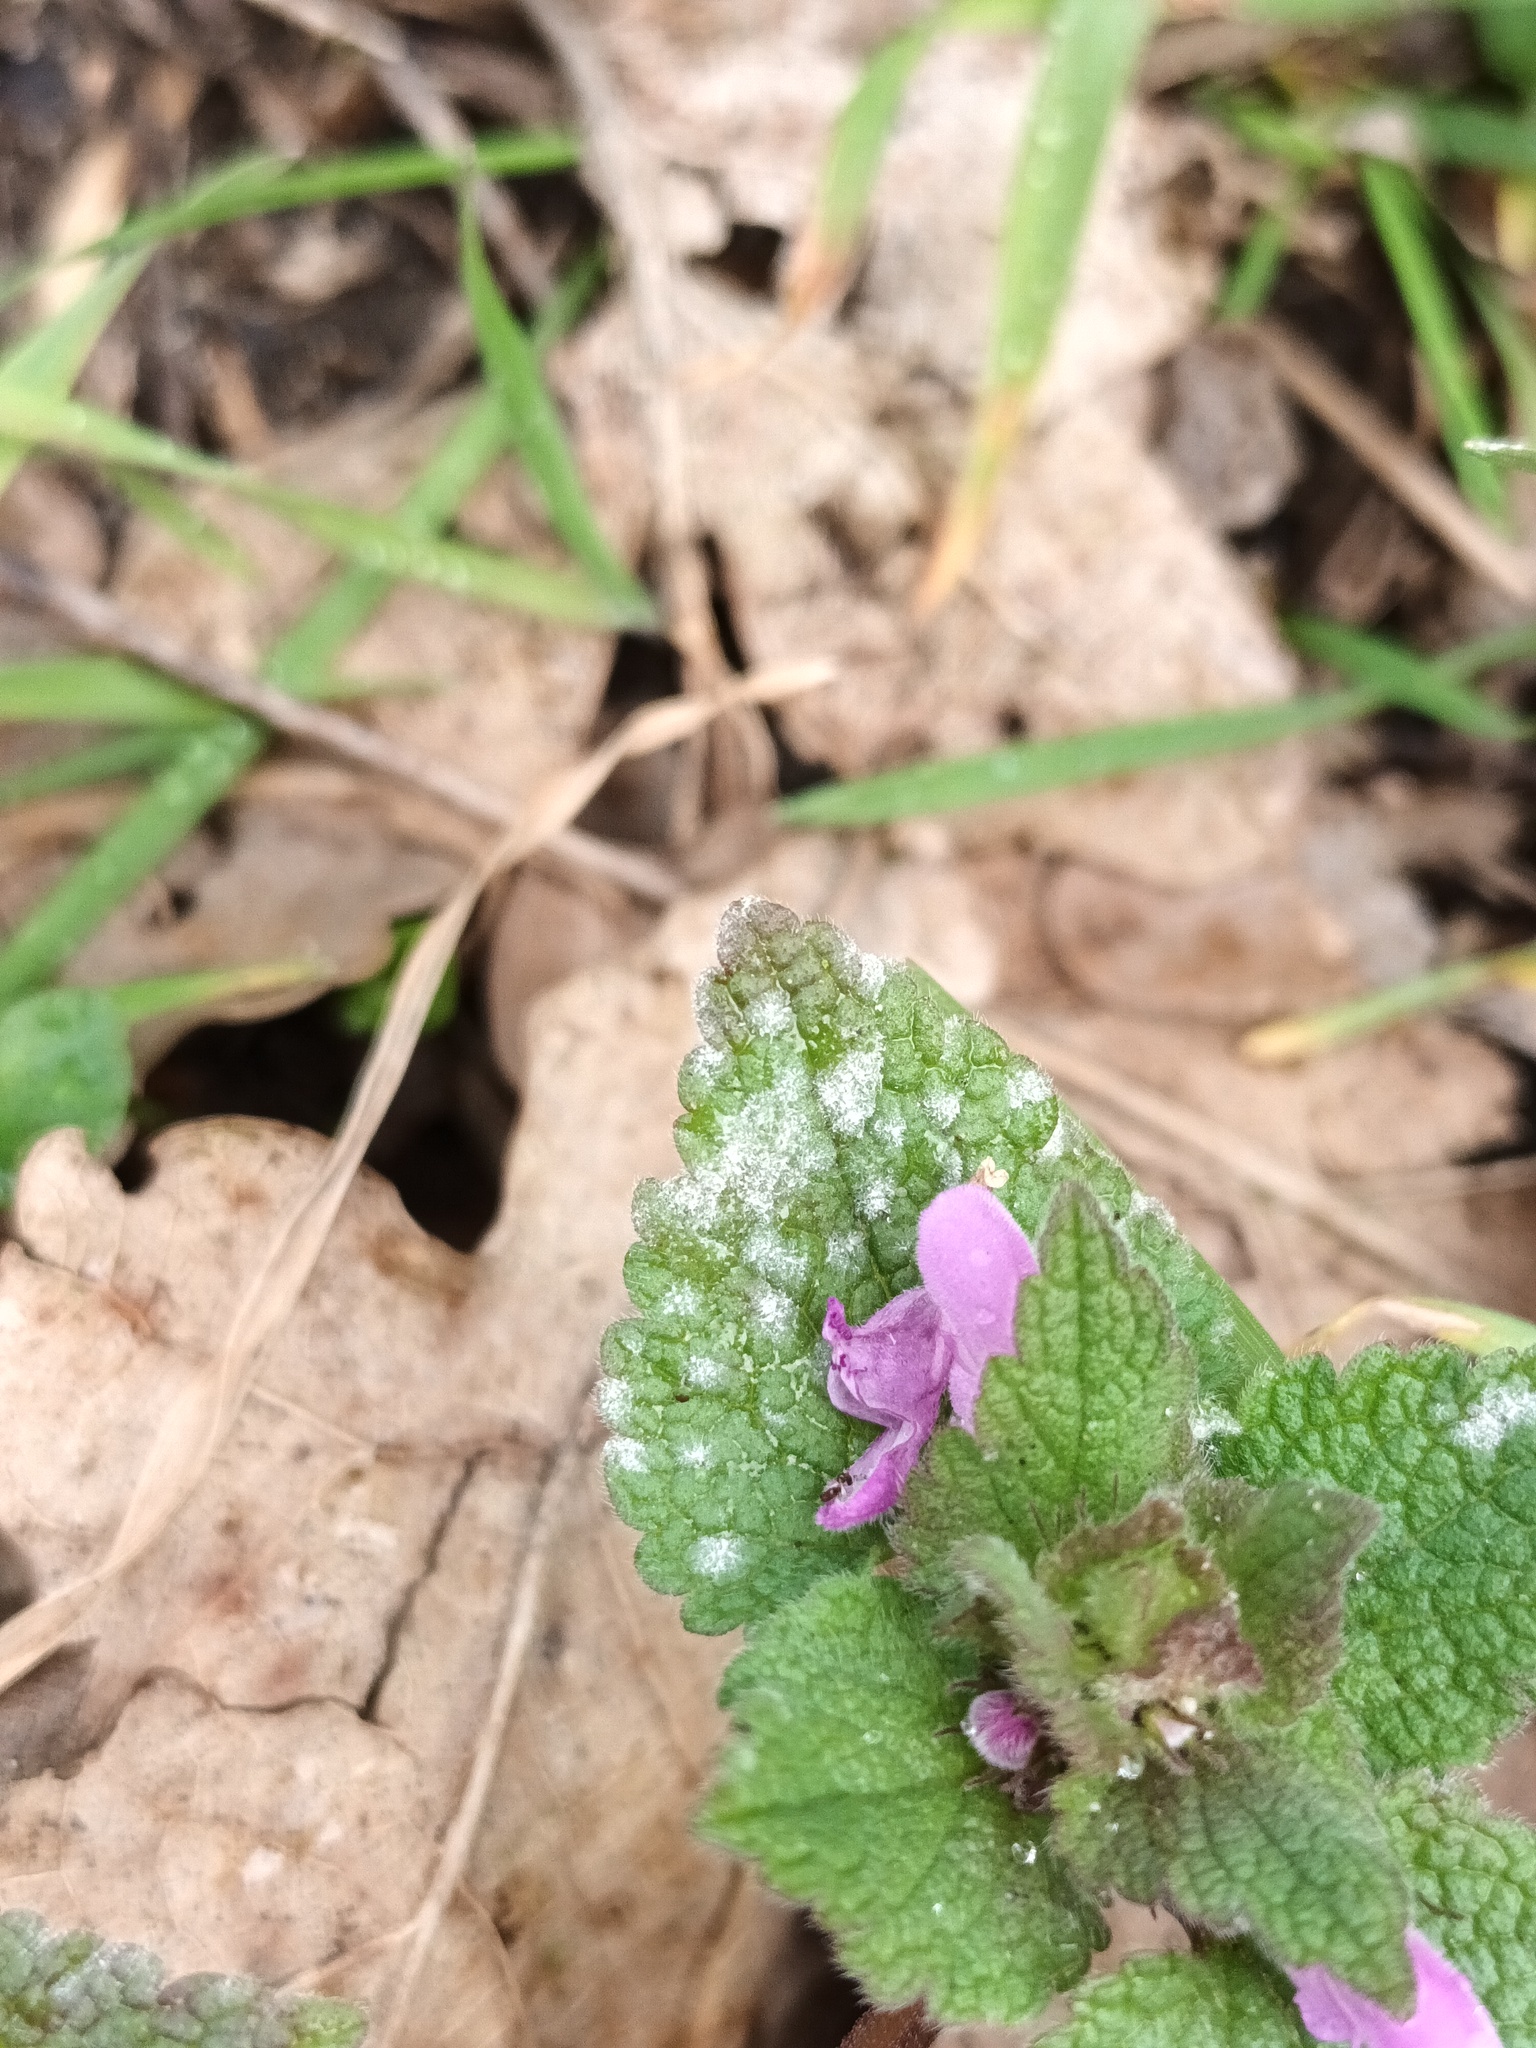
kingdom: Fungi
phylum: Ascomycota
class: Leotiomycetes
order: Helotiales
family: Erysiphaceae
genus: Neoerysiphe
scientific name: Neoerysiphe galeopsidis
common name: Mint mildew
